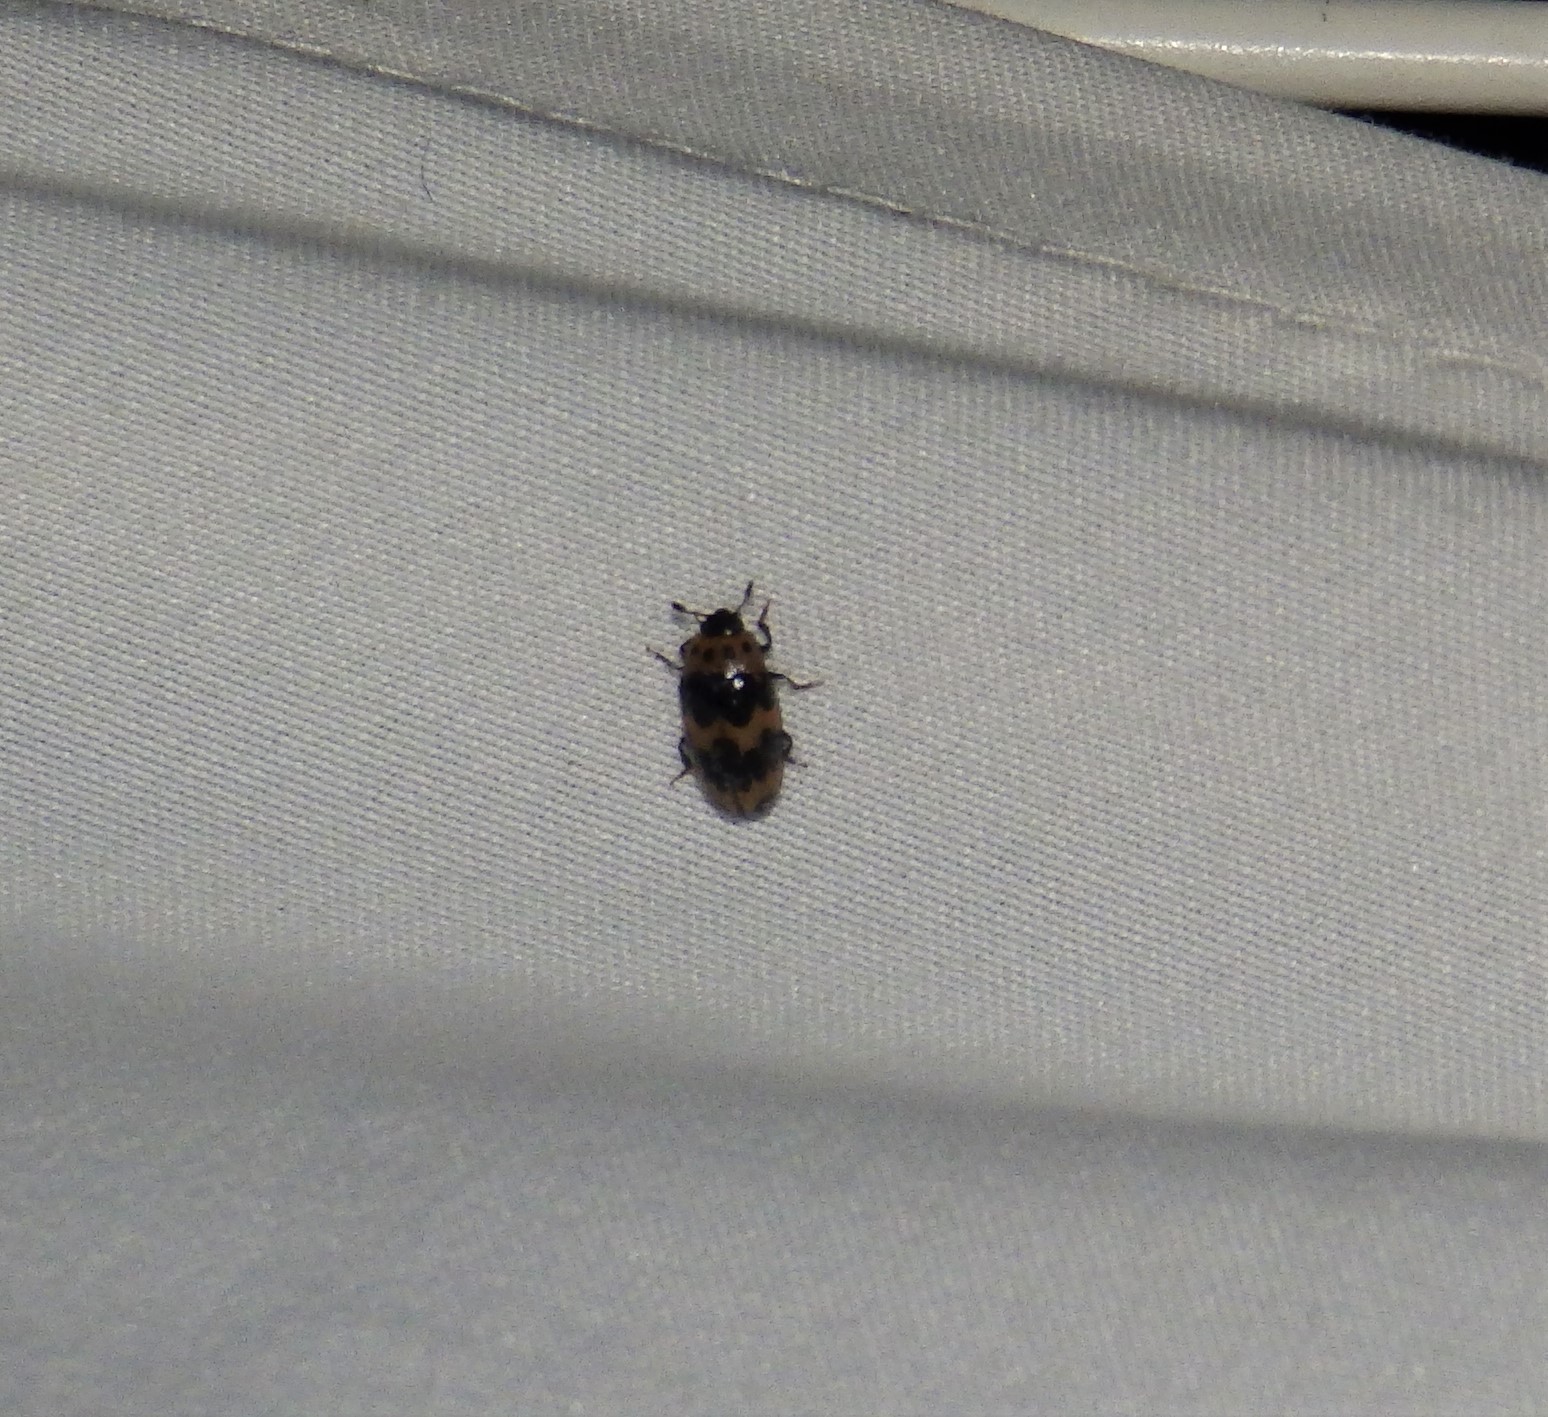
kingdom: Animalia
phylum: Arthropoda
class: Insecta
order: Coleoptera
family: Erotylidae
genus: Ischyrus
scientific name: Ischyrus quadripunctatus
